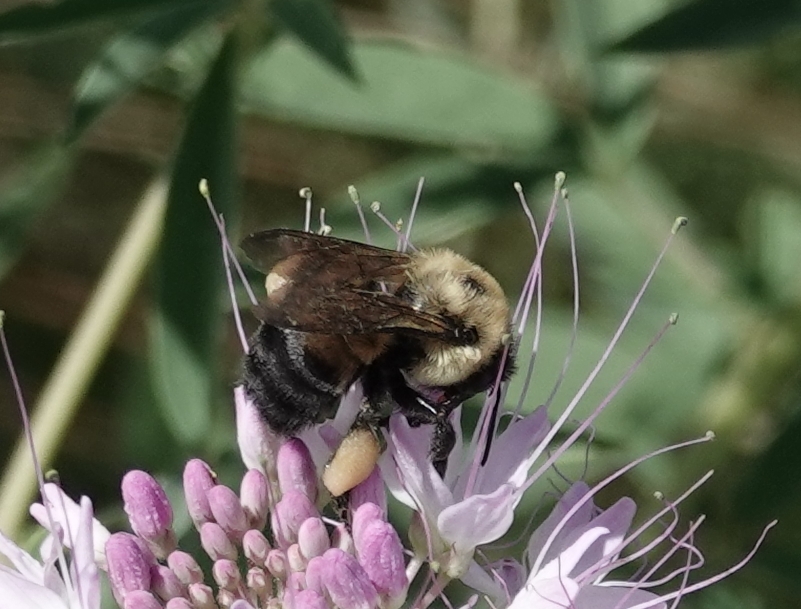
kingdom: Animalia
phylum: Arthropoda
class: Insecta
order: Hymenoptera
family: Apidae
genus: Bombus
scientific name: Bombus griseocollis
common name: Brown-belted bumble bee
